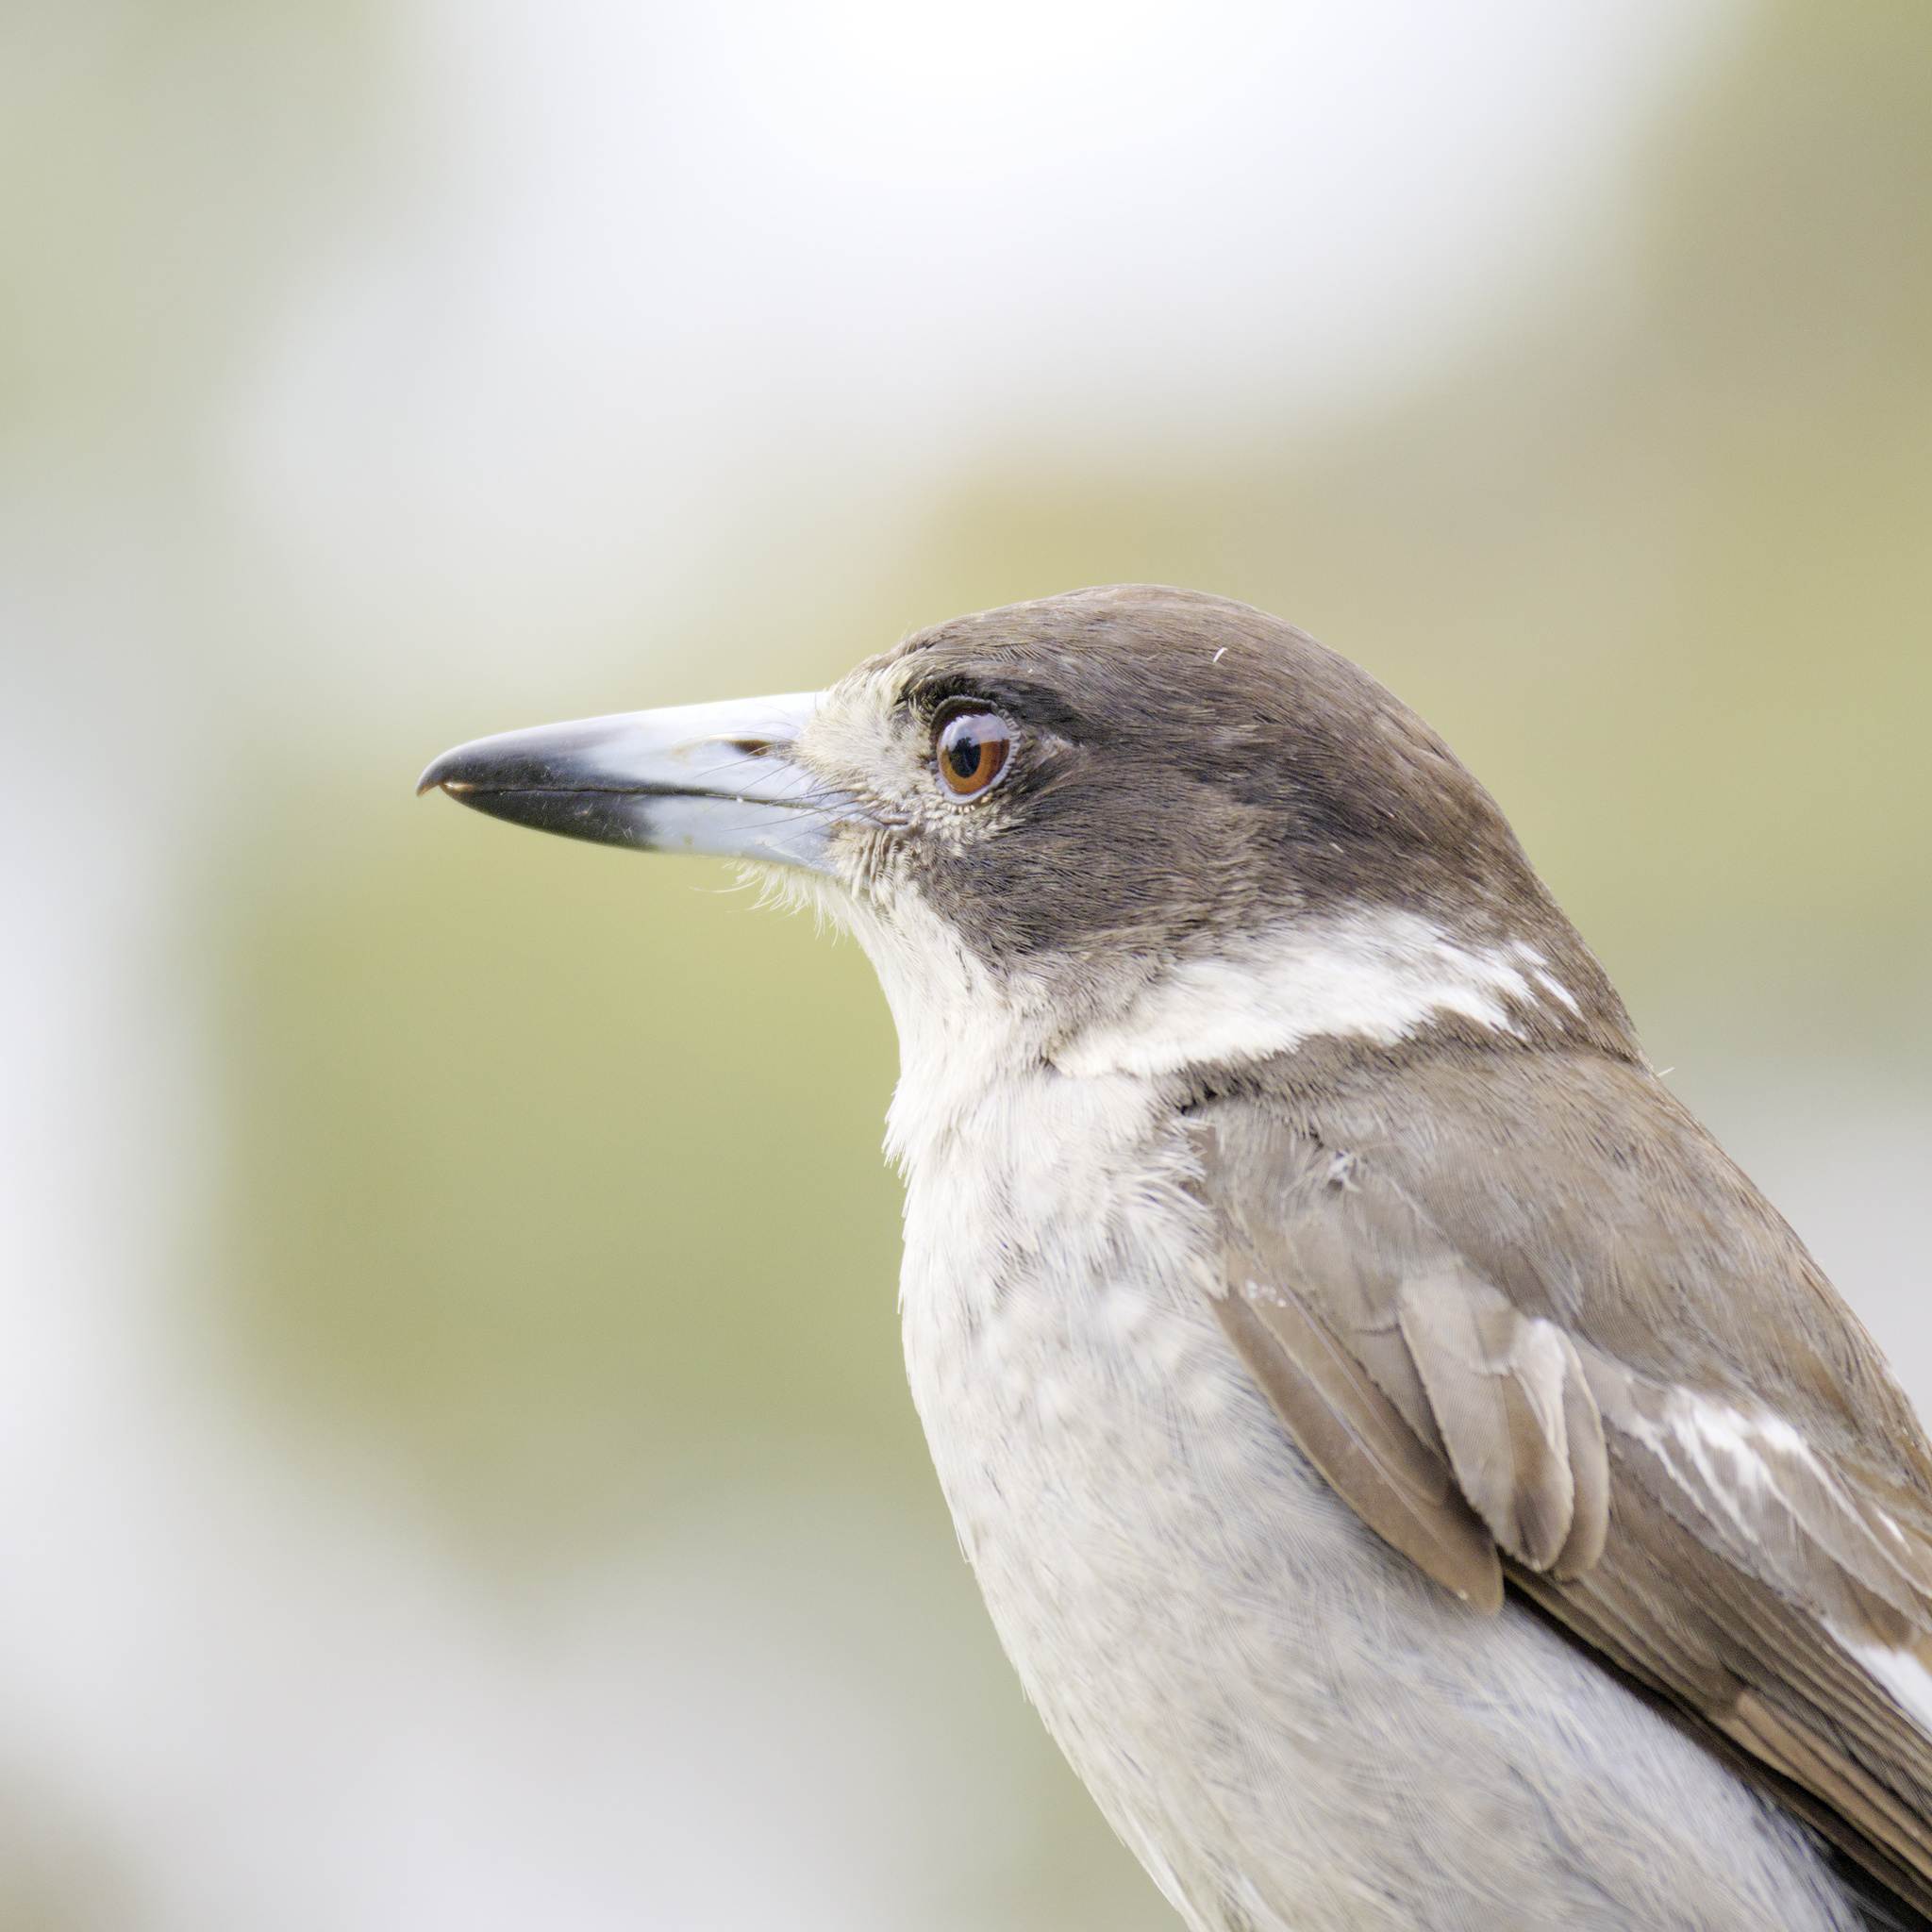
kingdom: Animalia
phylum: Chordata
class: Aves
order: Passeriformes
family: Cracticidae
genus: Cracticus
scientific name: Cracticus torquatus
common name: Grey butcherbird
